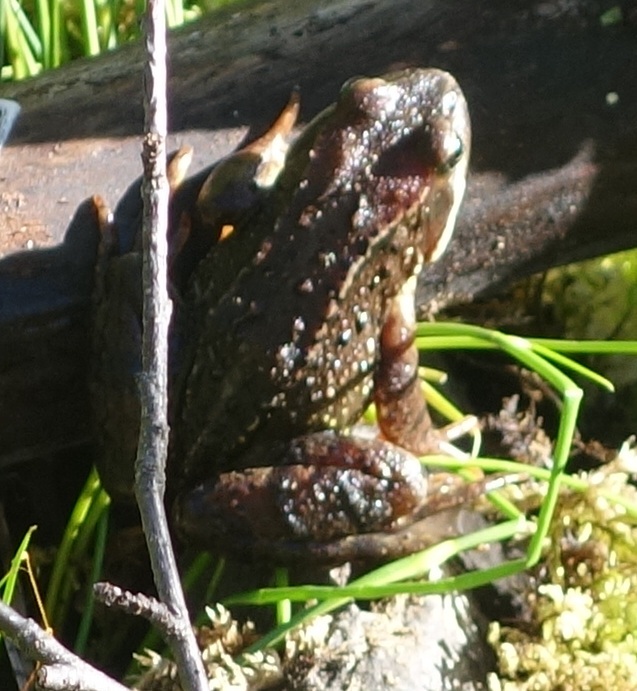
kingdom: Animalia
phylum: Chordata
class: Amphibia
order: Anura
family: Ranidae
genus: Rana
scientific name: Rana temporaria
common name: Common frog
